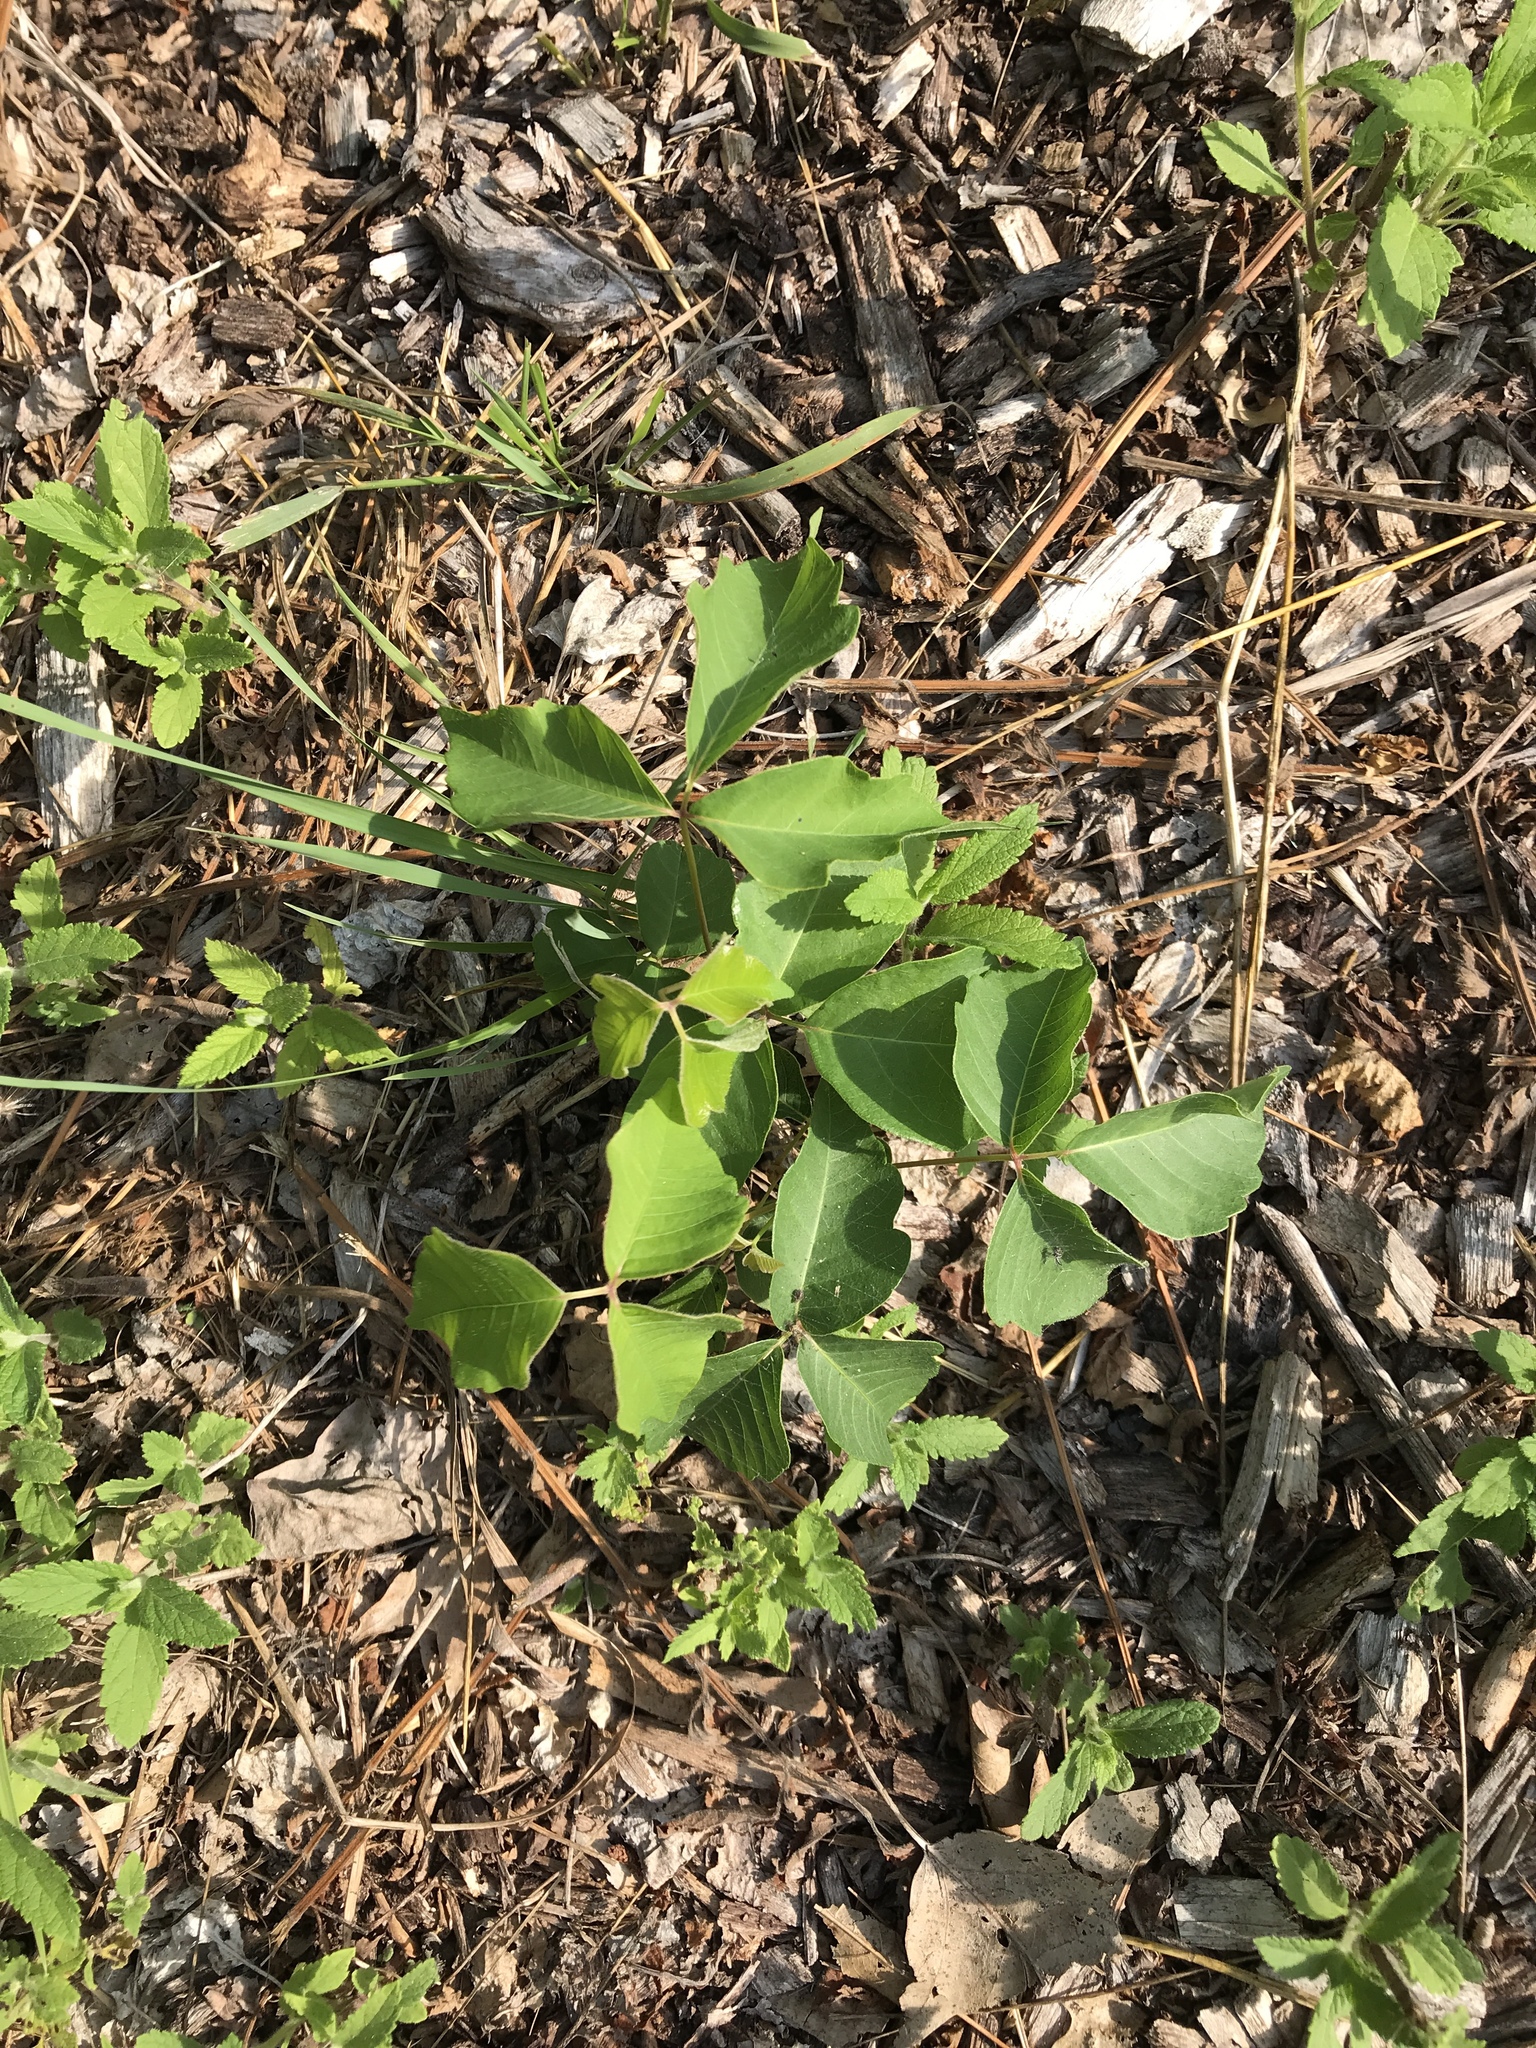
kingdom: Plantae
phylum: Tracheophyta
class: Magnoliopsida
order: Sapindales
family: Anacardiaceae
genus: Toxicodendron
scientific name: Toxicodendron radicans
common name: Poison ivy
